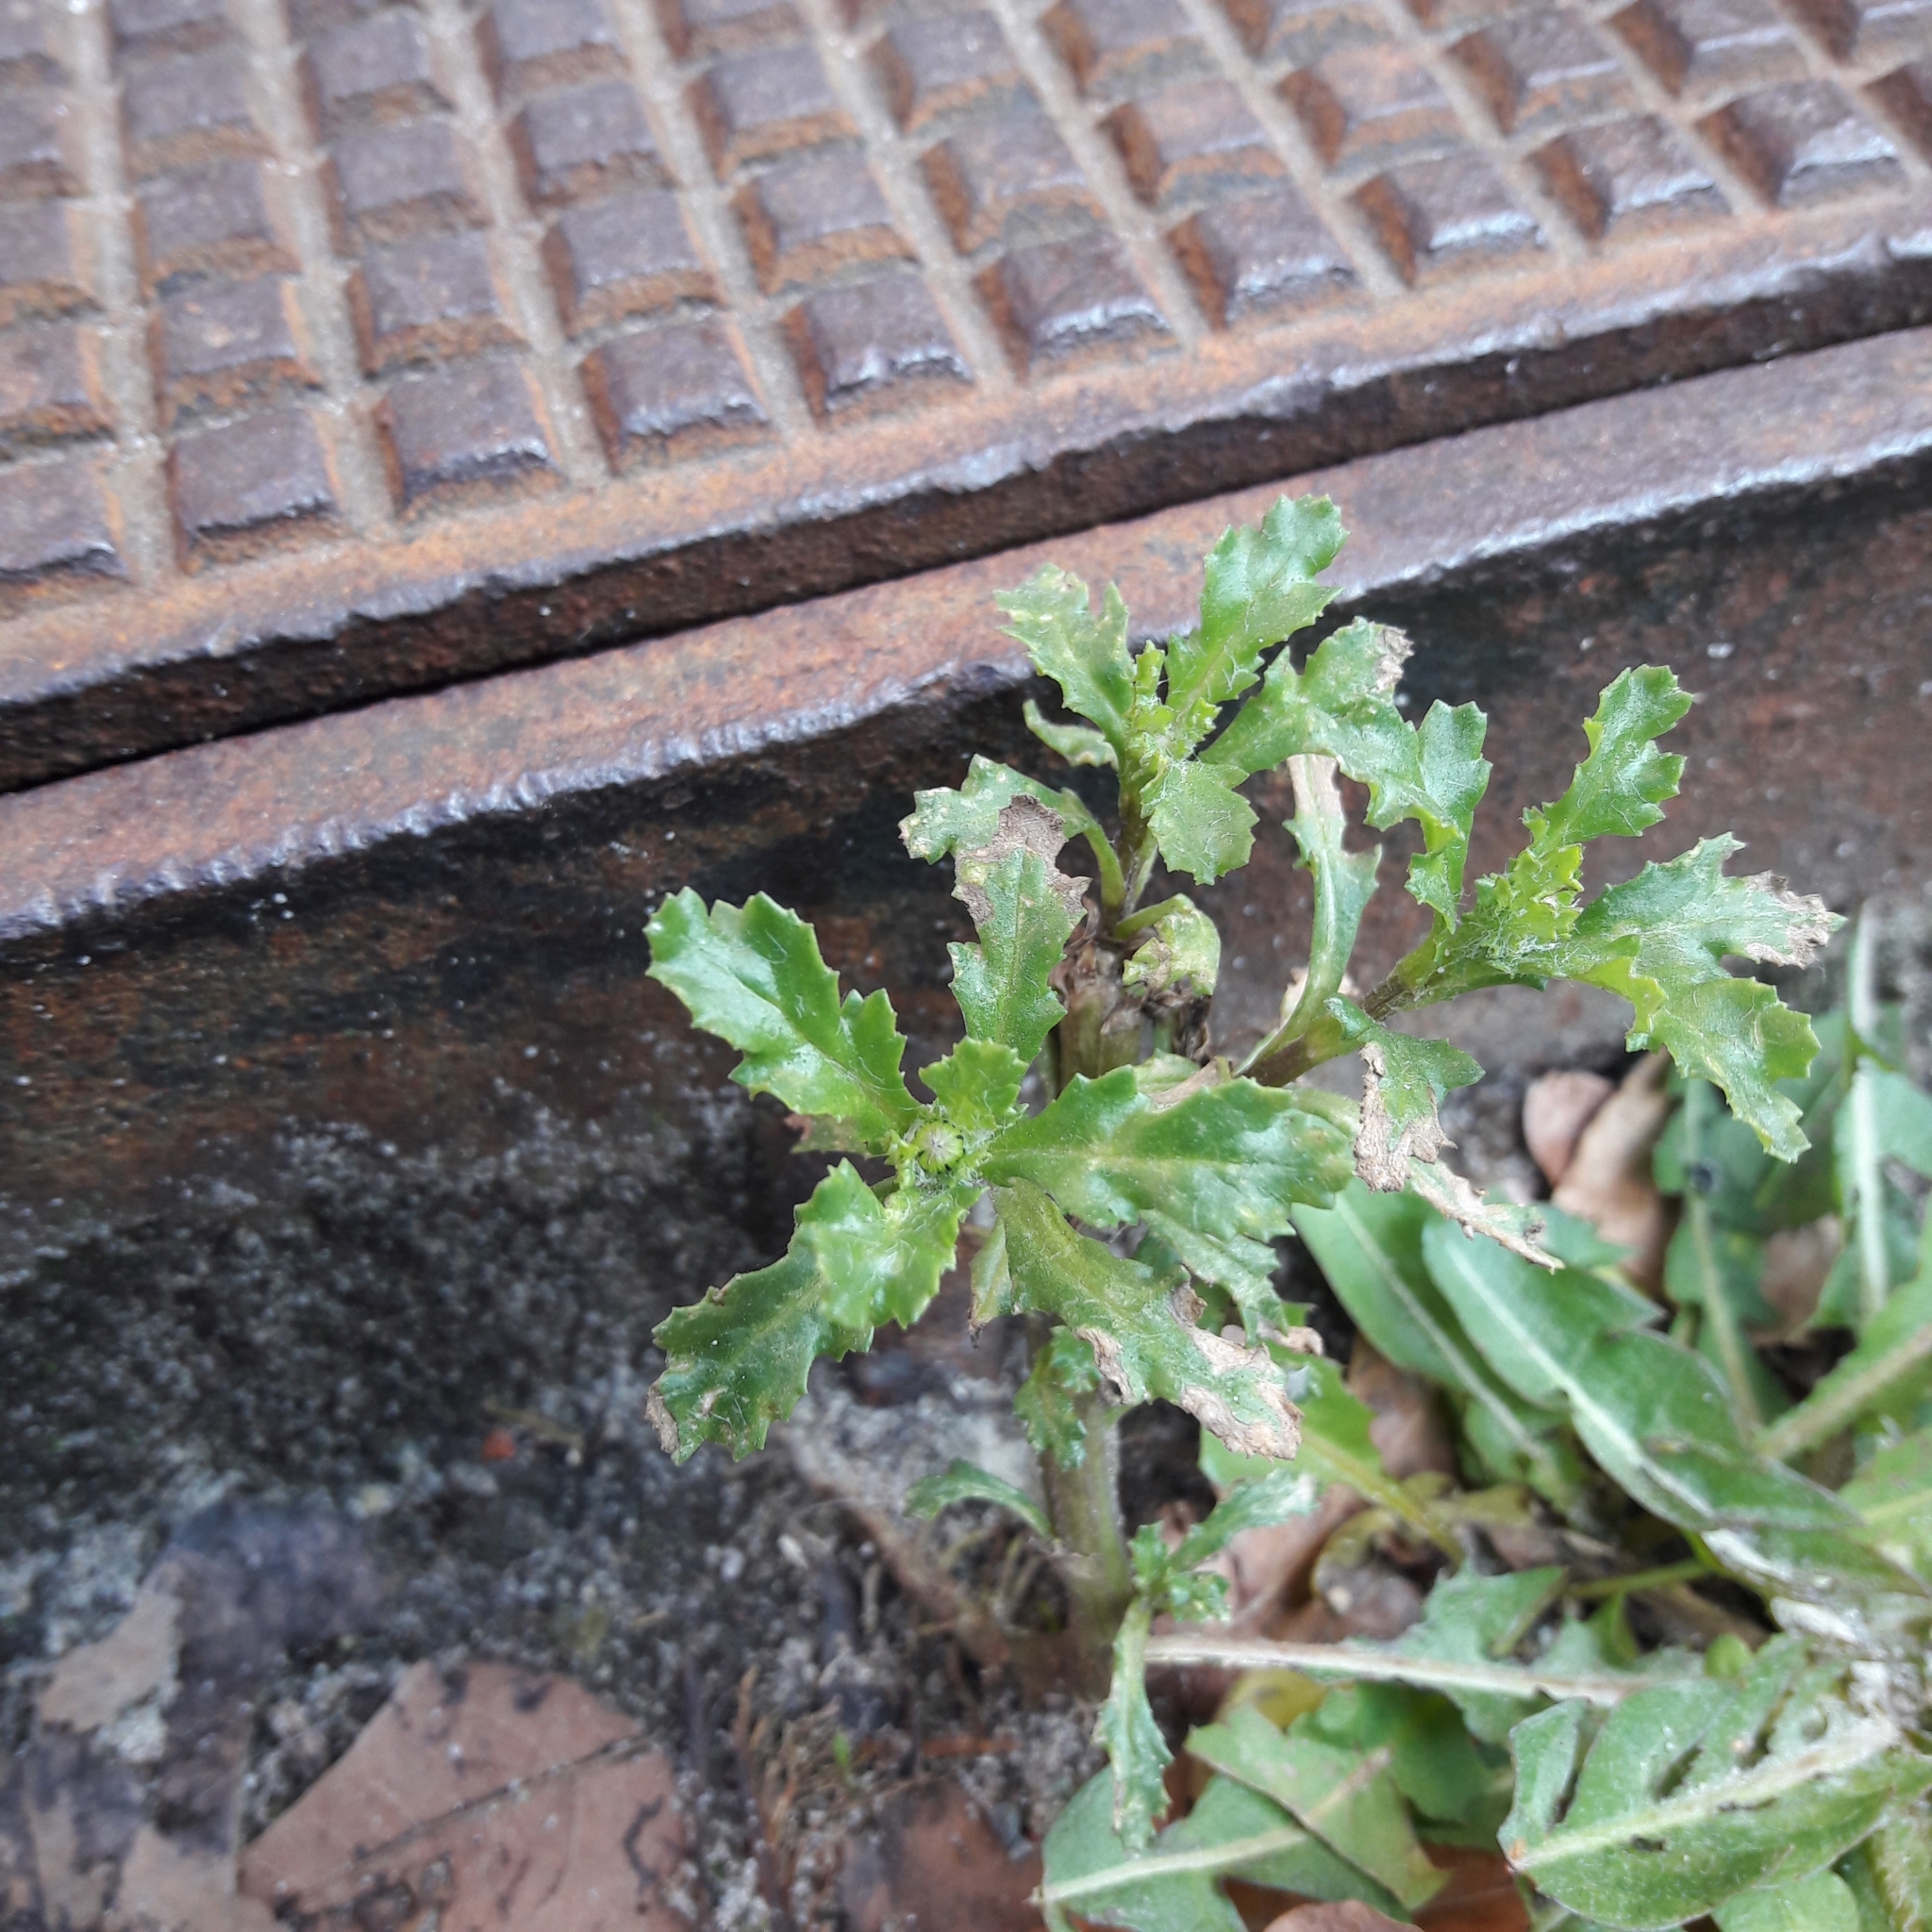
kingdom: Plantae
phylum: Tracheophyta
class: Magnoliopsida
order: Asterales
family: Asteraceae
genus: Senecio
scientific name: Senecio vulgaris
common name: Old-man-in-the-spring
